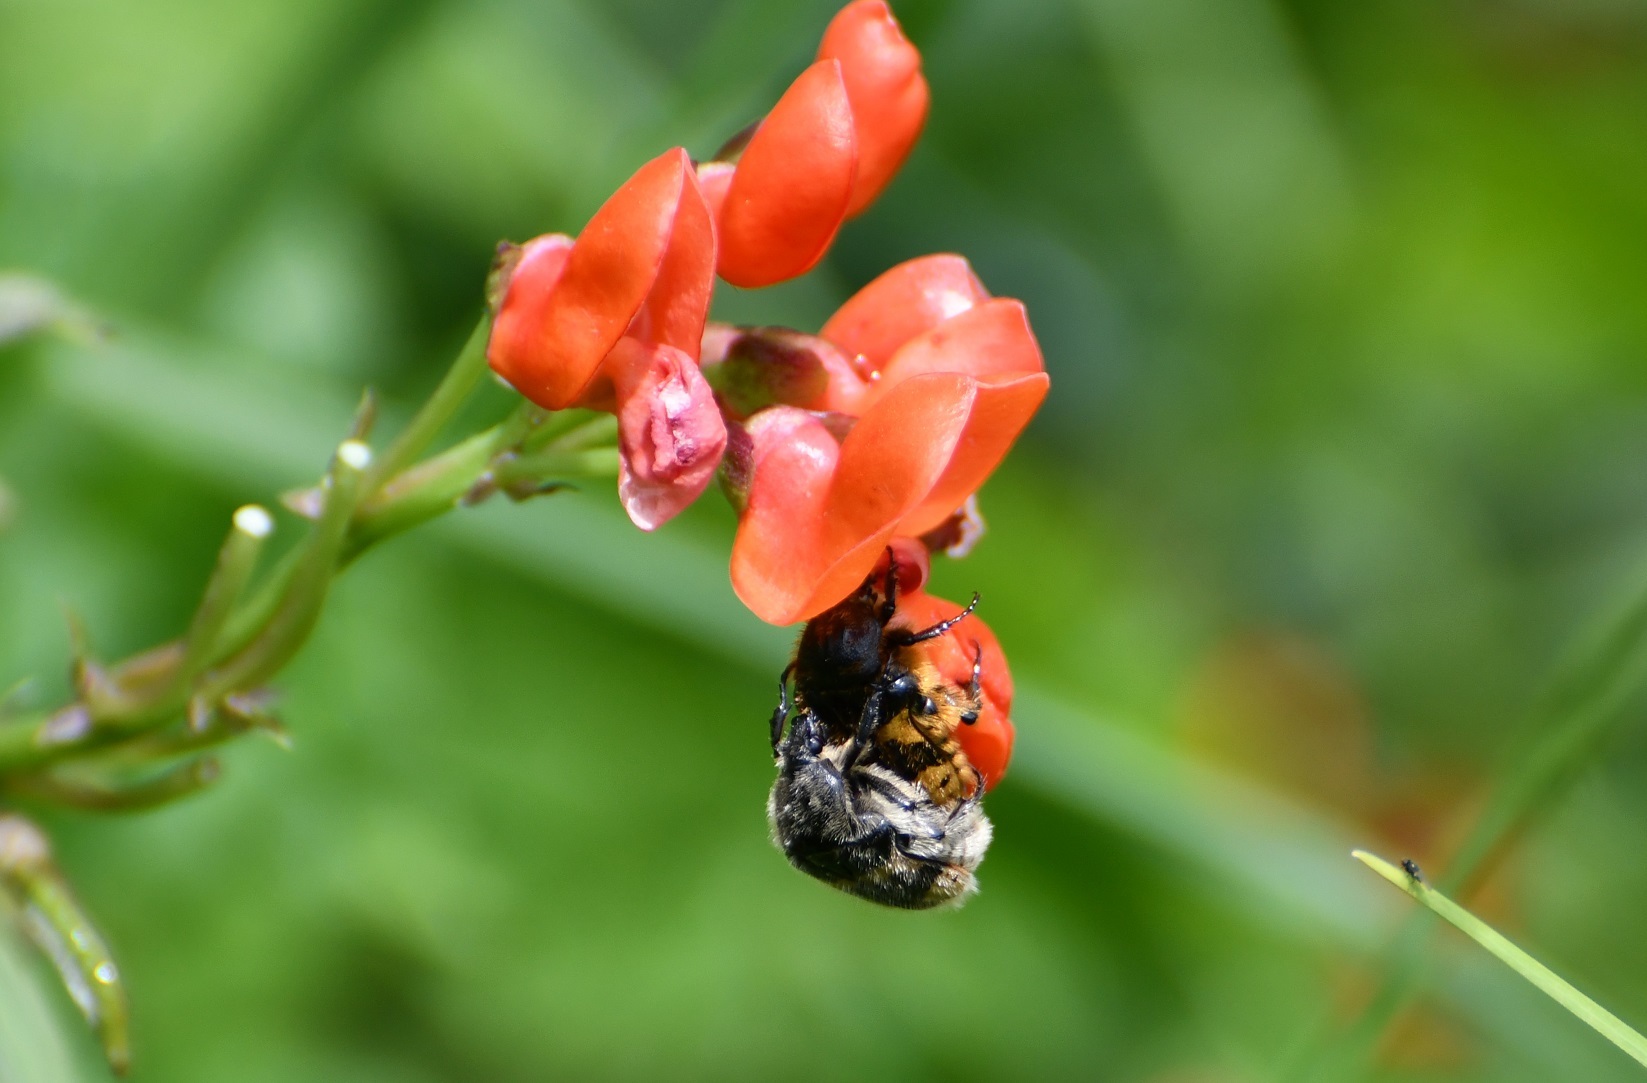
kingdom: Animalia
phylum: Arthropoda
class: Insecta
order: Coleoptera
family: Scarabaeidae
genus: Euphoria
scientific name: Euphoria basalis
